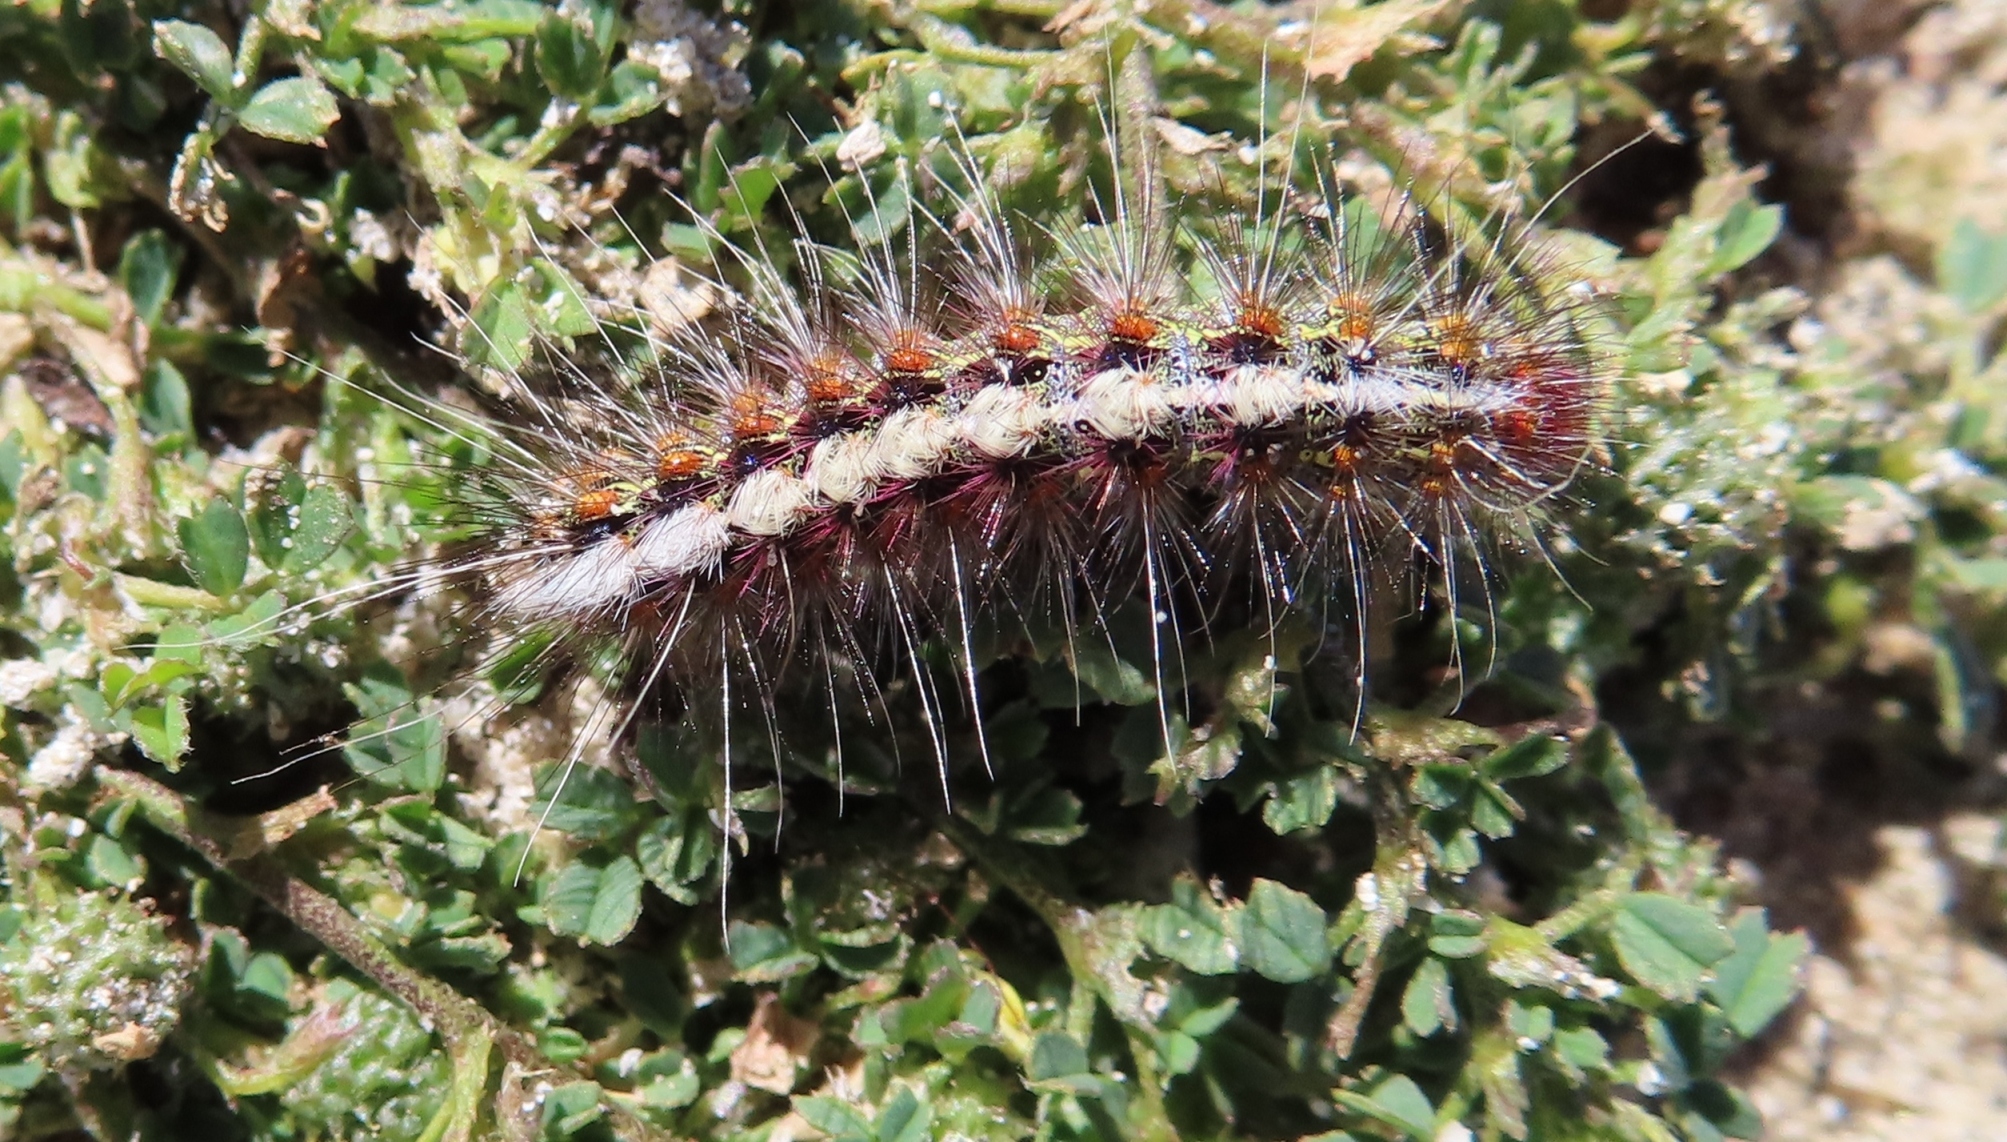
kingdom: Animalia
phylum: Arthropoda
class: Insecta
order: Lepidoptera
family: Erebidae
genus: Paralacydes
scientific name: Paralacydes vocula
